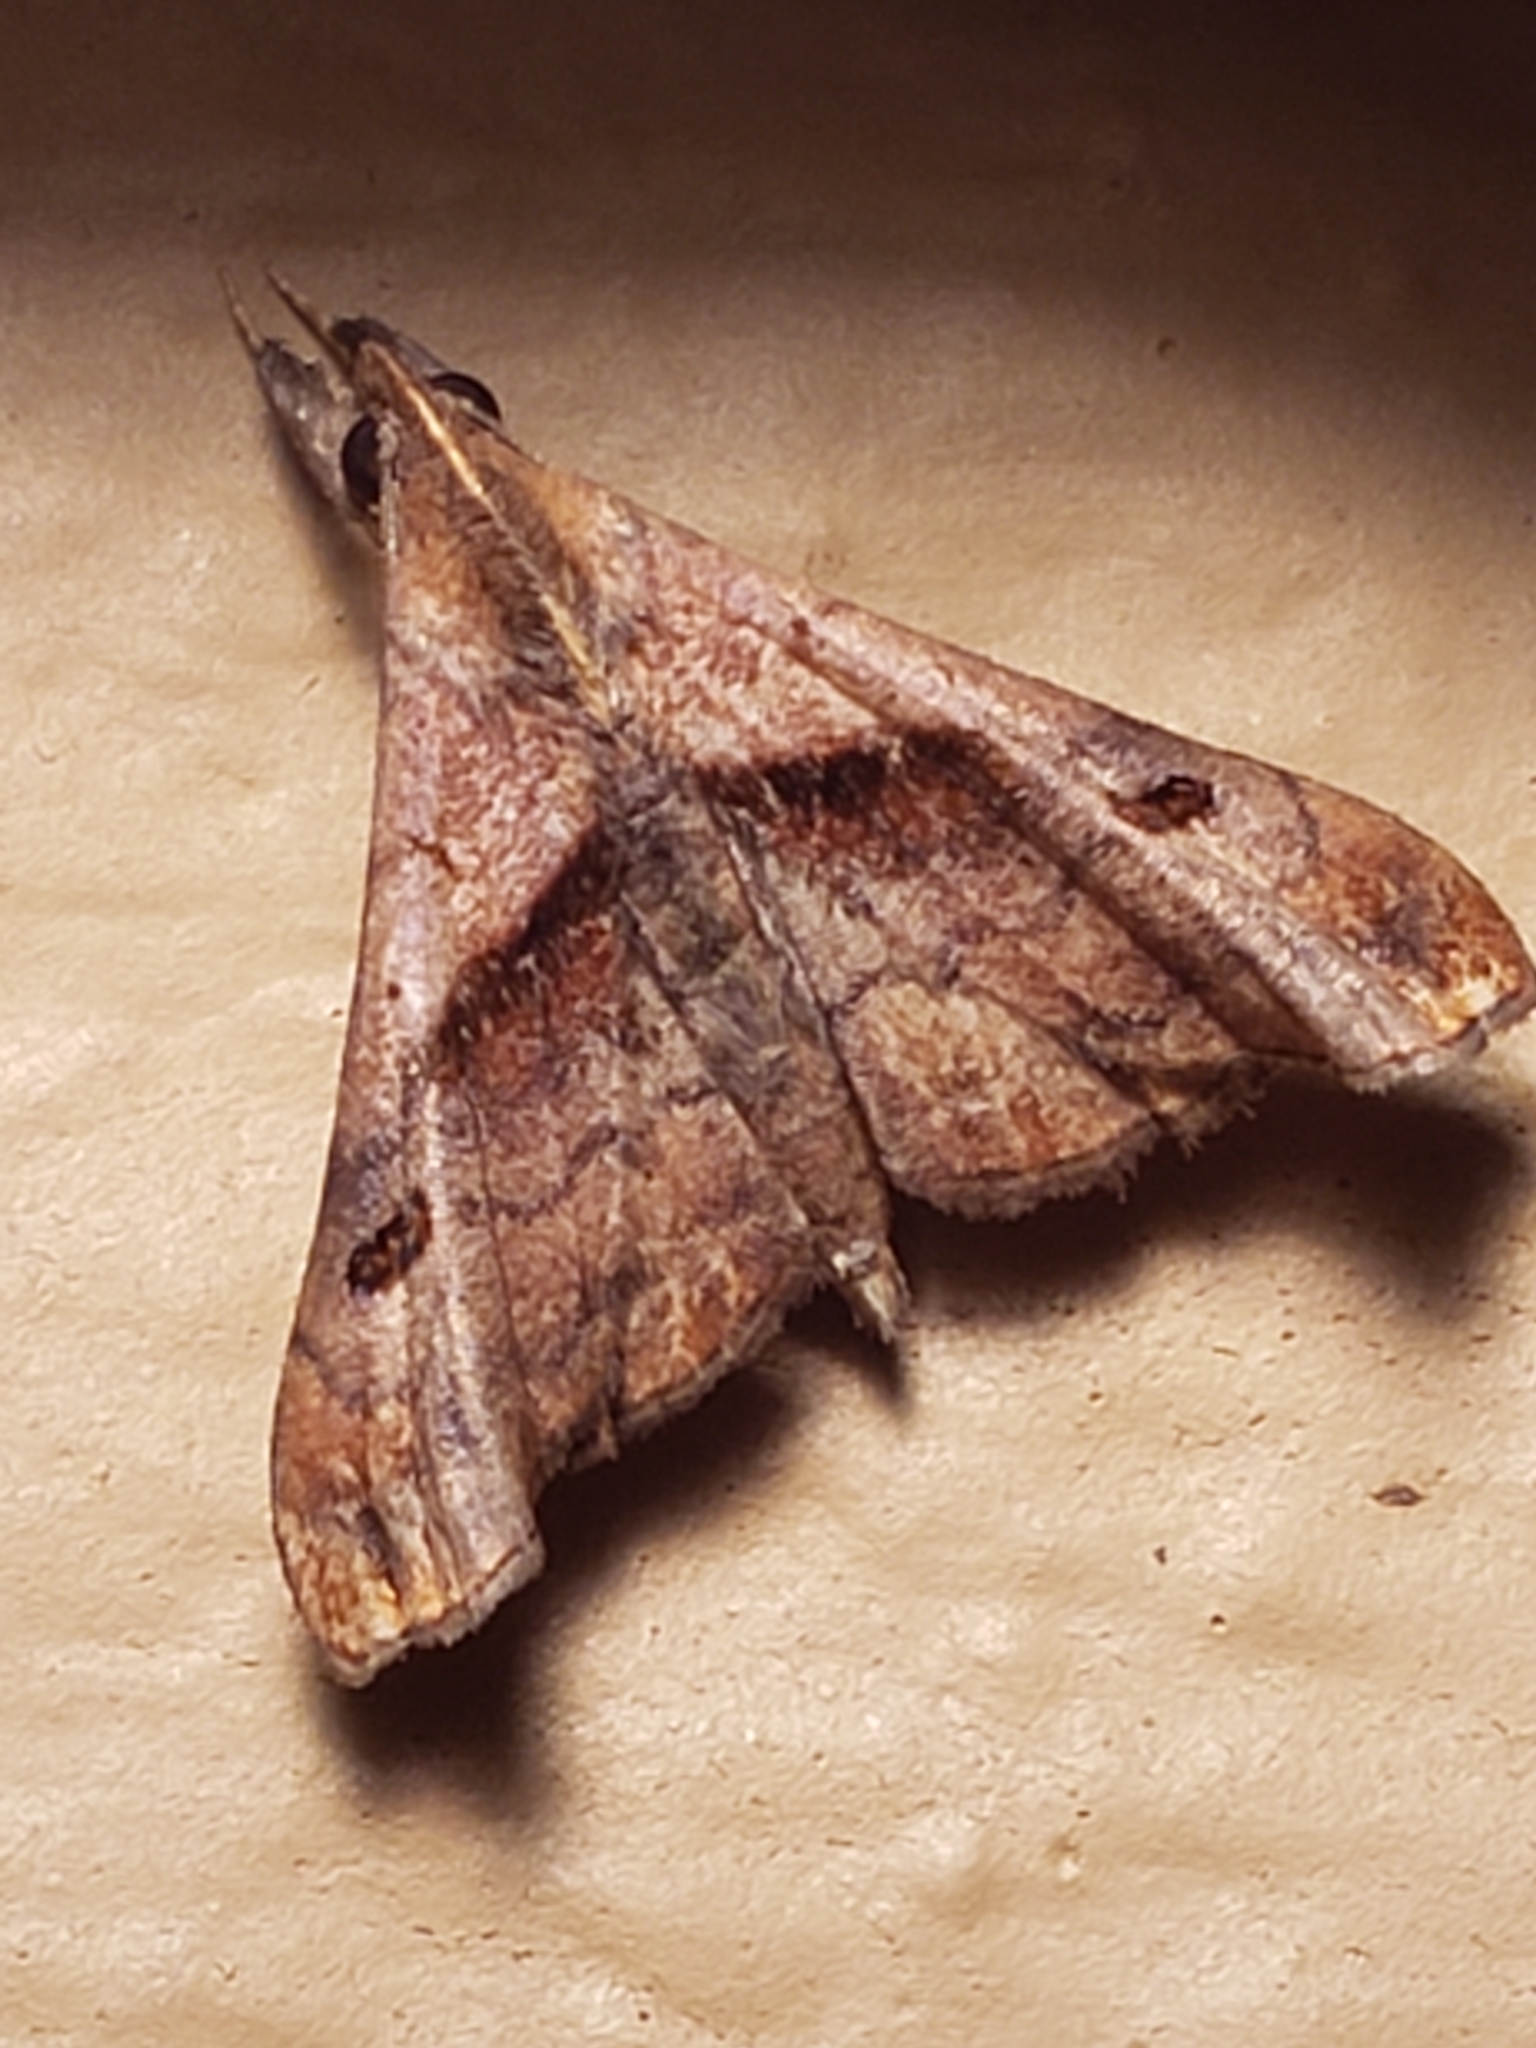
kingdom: Animalia
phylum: Arthropoda
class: Insecta
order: Lepidoptera
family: Erebidae
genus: Palthis
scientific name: Palthis angulalis
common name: Dark-spotted palthis moth
